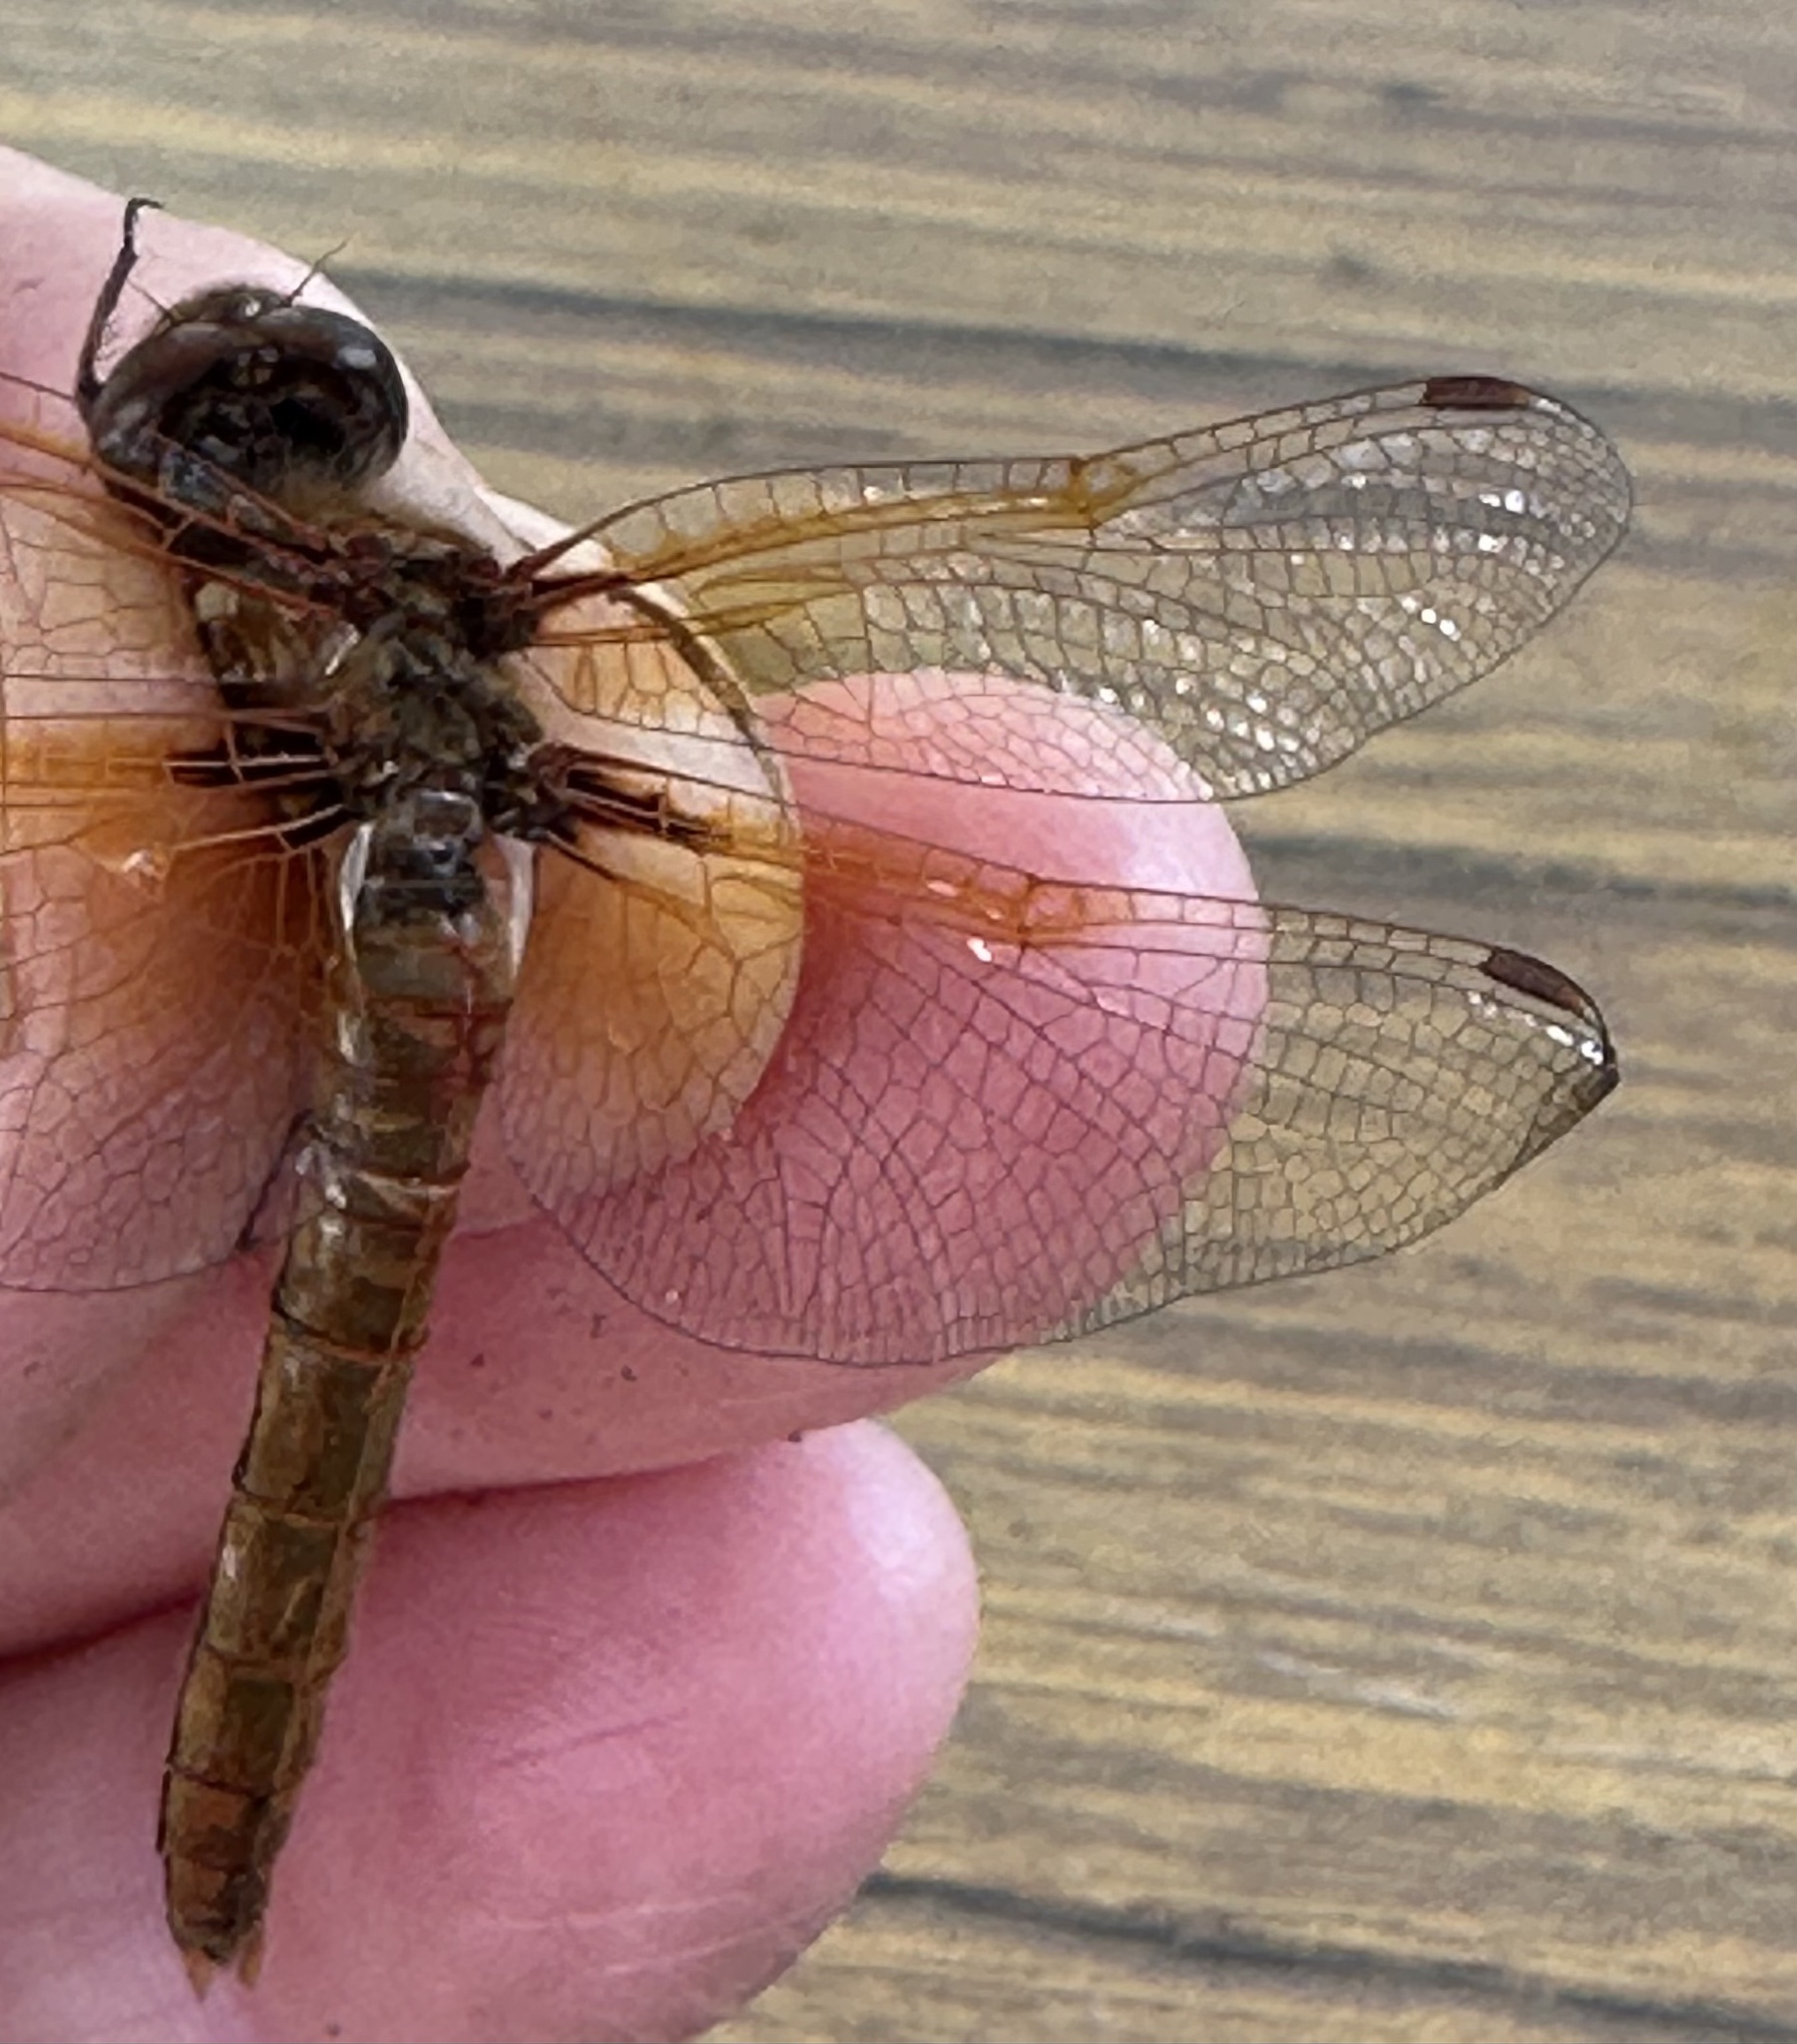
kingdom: Animalia
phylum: Arthropoda
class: Insecta
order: Odonata
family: Libellulidae
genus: Sympetrum
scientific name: Sympetrum illotum
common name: Cardinal meadowhawk
